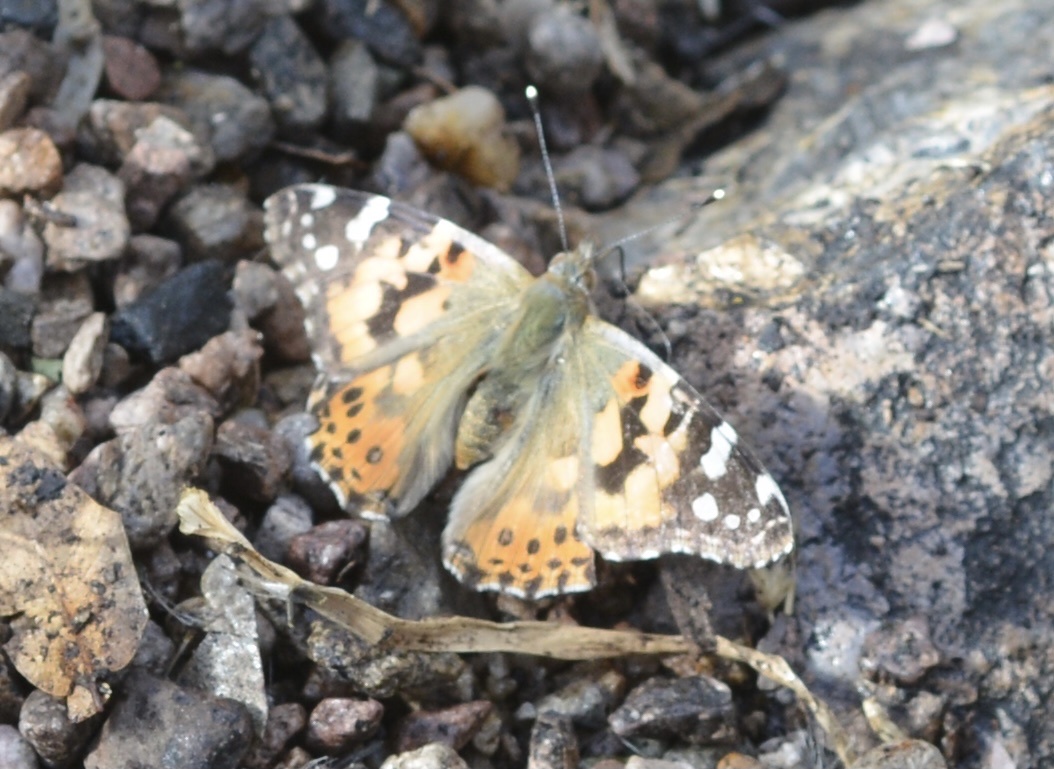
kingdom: Animalia
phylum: Arthropoda
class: Insecta
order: Lepidoptera
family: Nymphalidae
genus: Vanessa
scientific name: Vanessa cardui
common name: Painted lady
